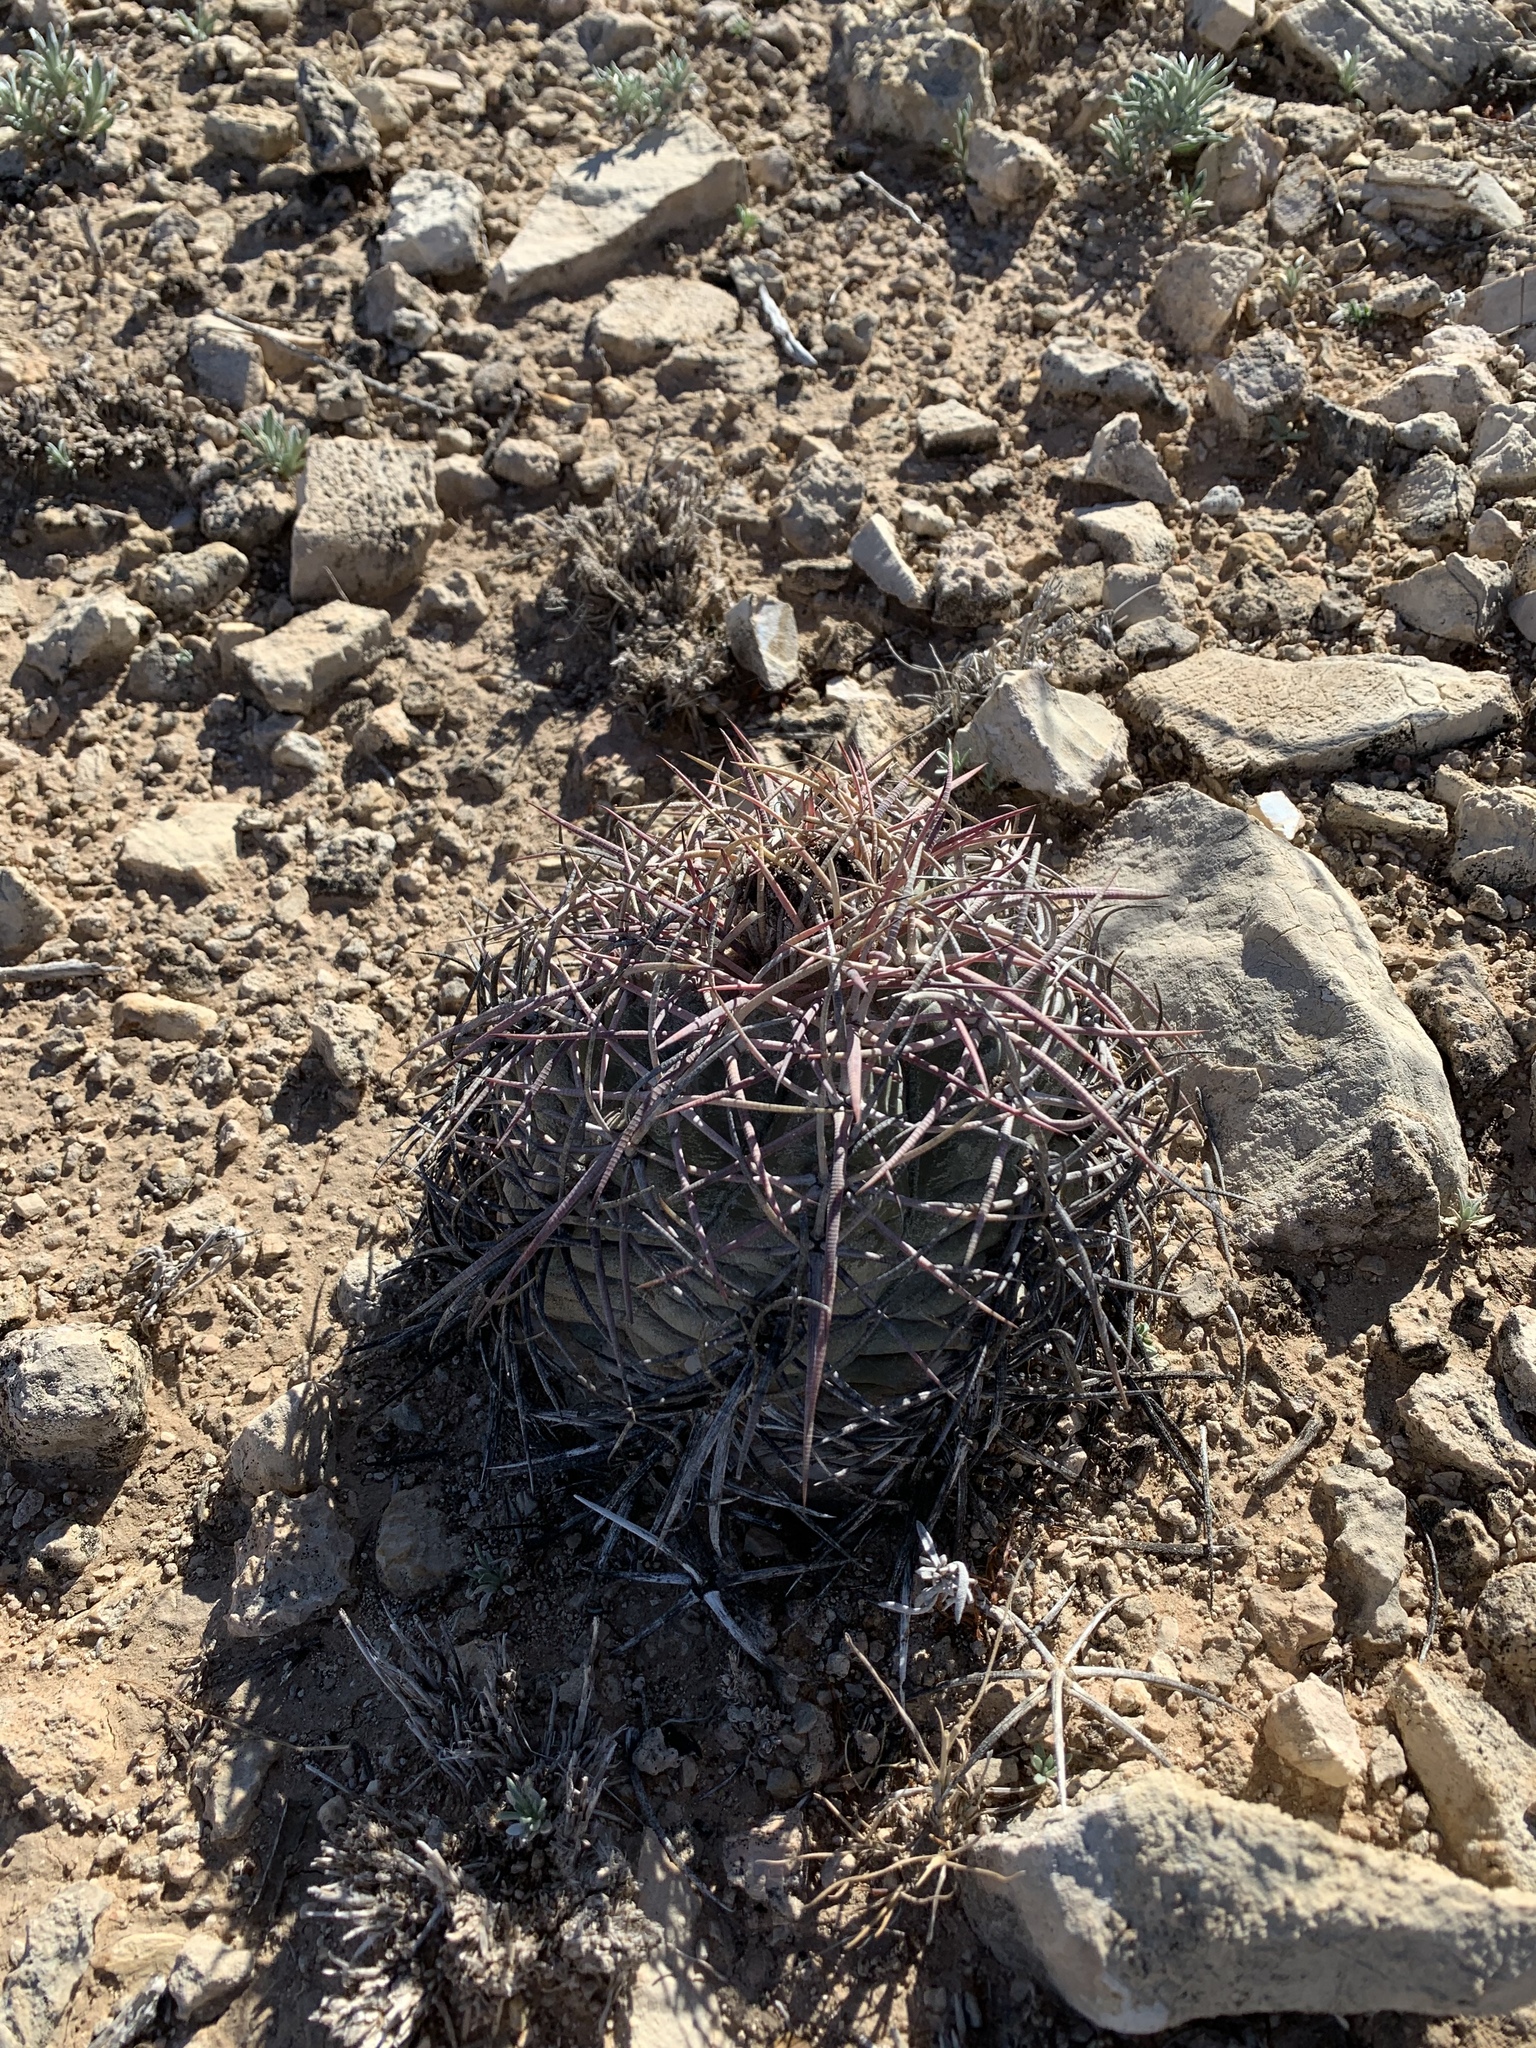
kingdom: Plantae
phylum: Tracheophyta
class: Magnoliopsida
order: Caryophyllales
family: Cactaceae
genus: Echinocactus
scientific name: Echinocactus horizonthalonius
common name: Devilshead
